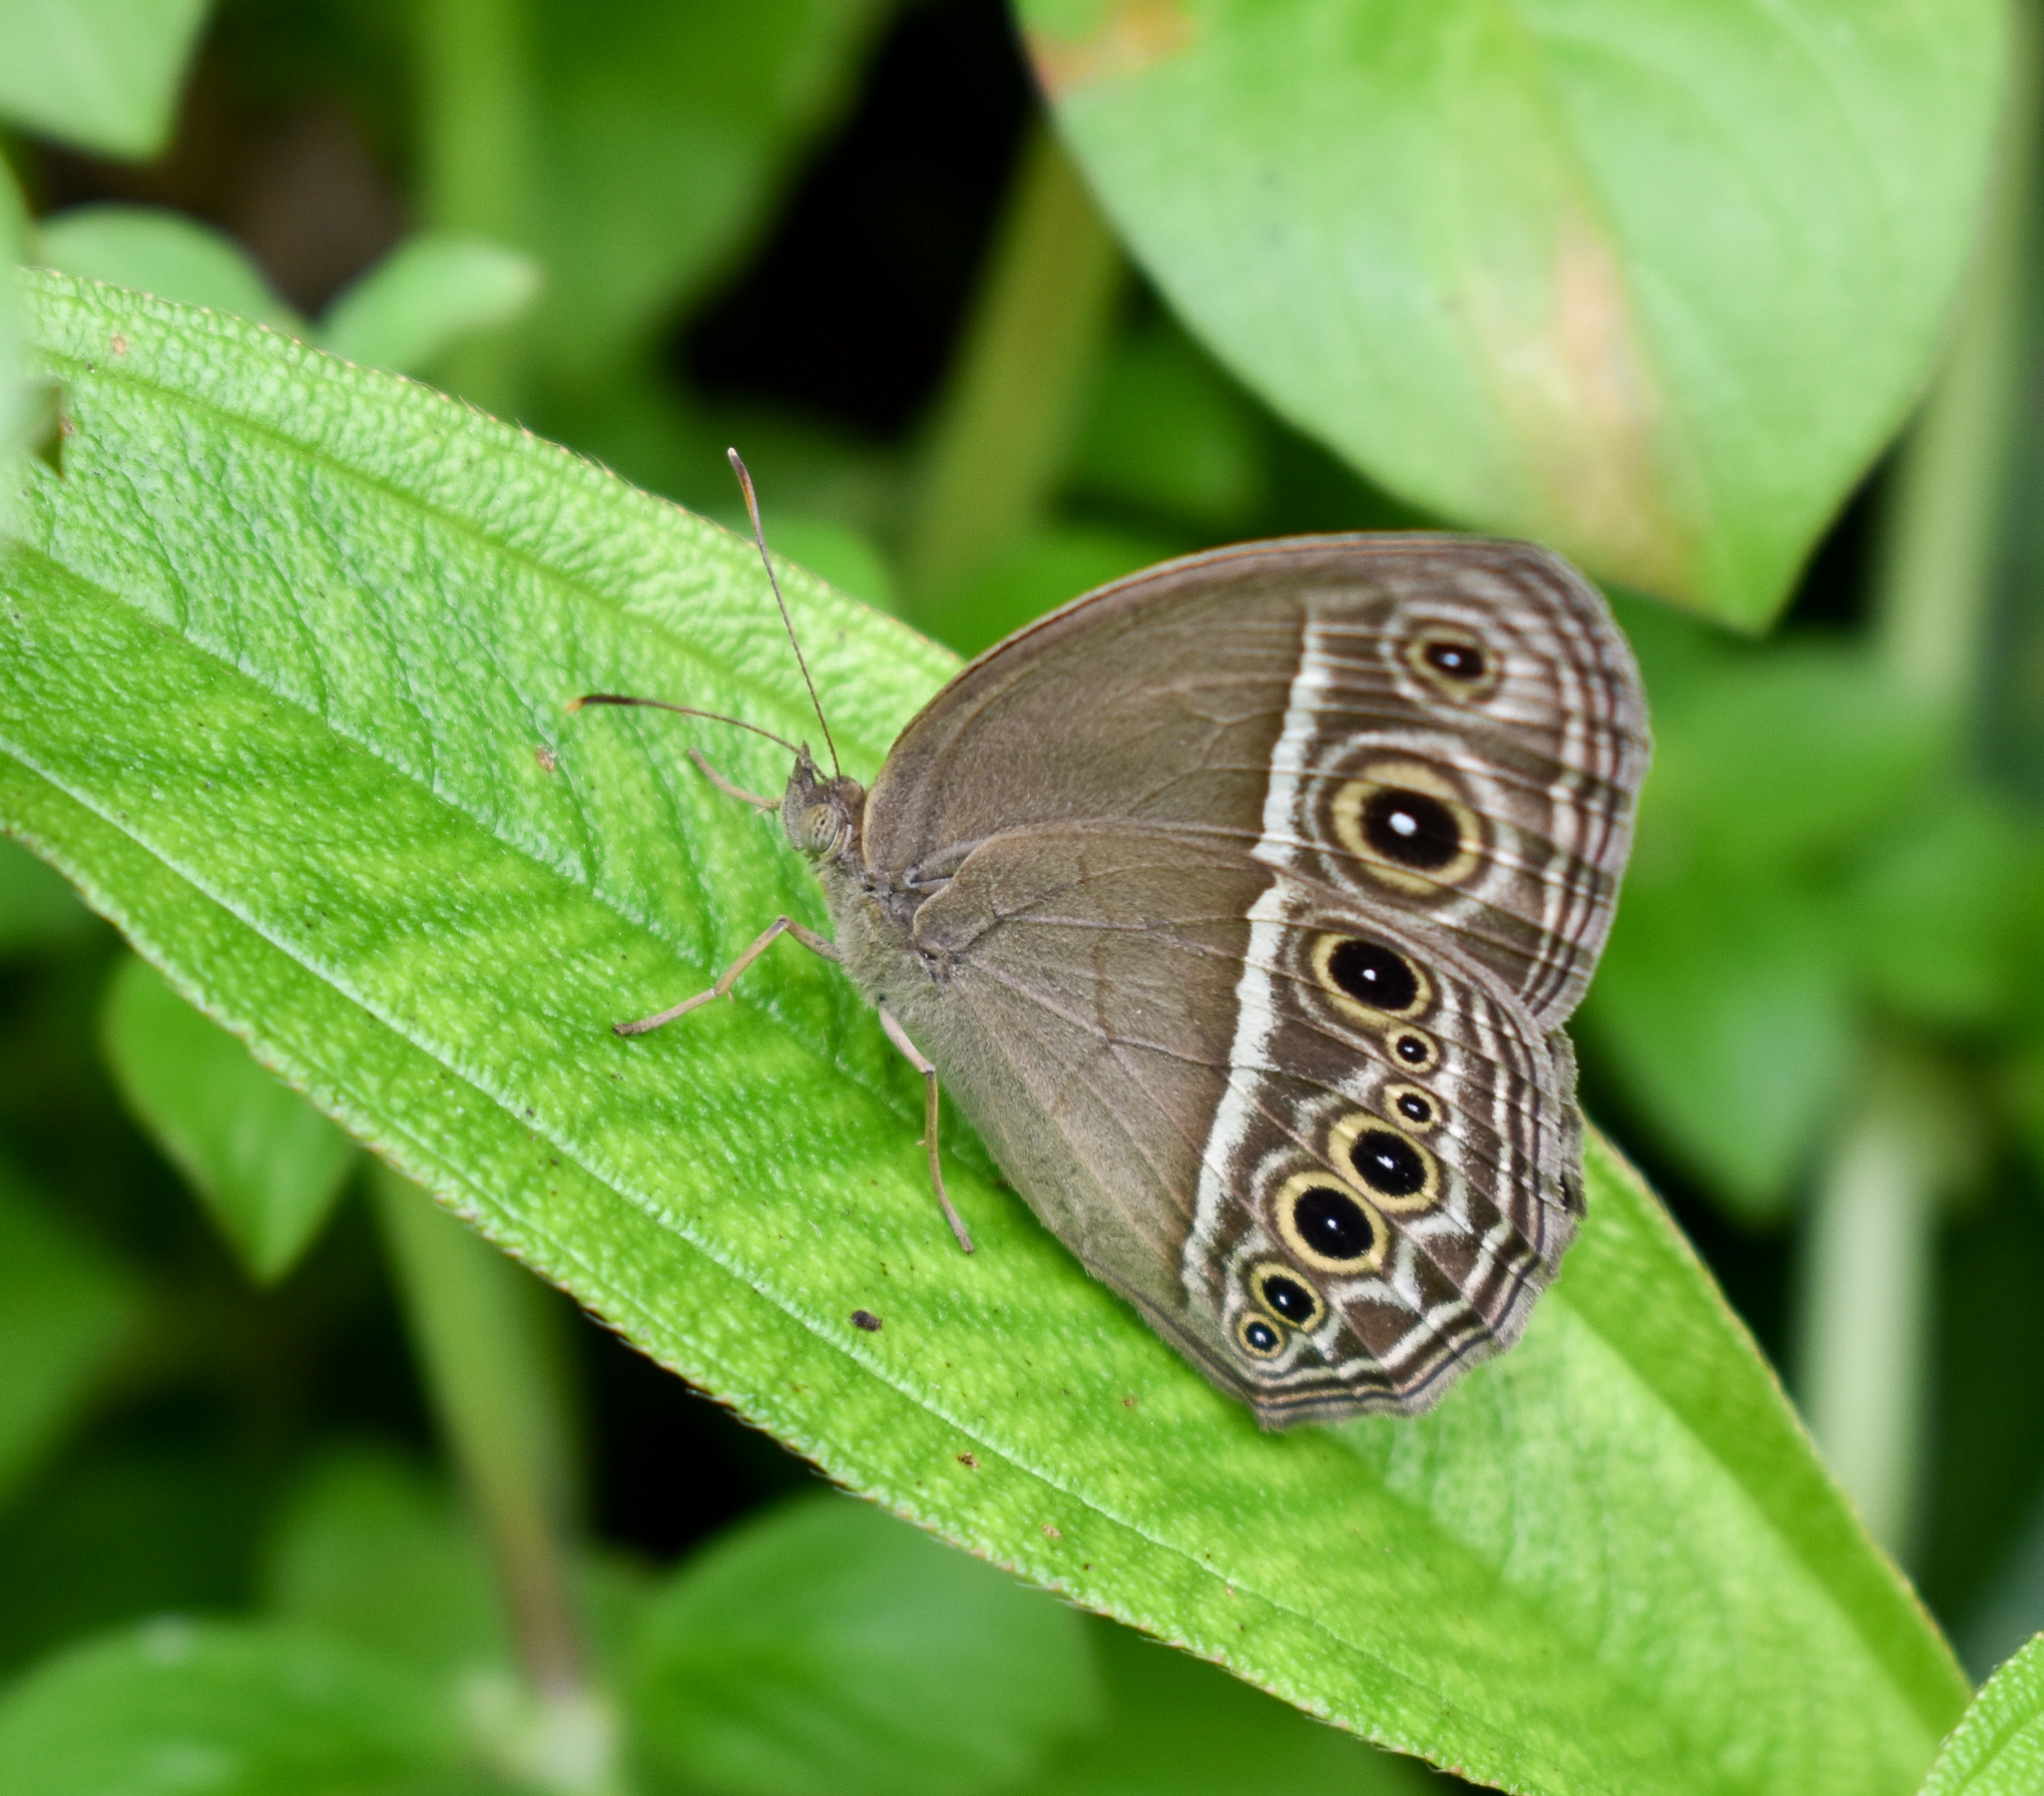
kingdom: Animalia
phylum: Arthropoda
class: Insecta
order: Lepidoptera
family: Nymphalidae
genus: Mycalesis
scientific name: Mycalesis mineus
